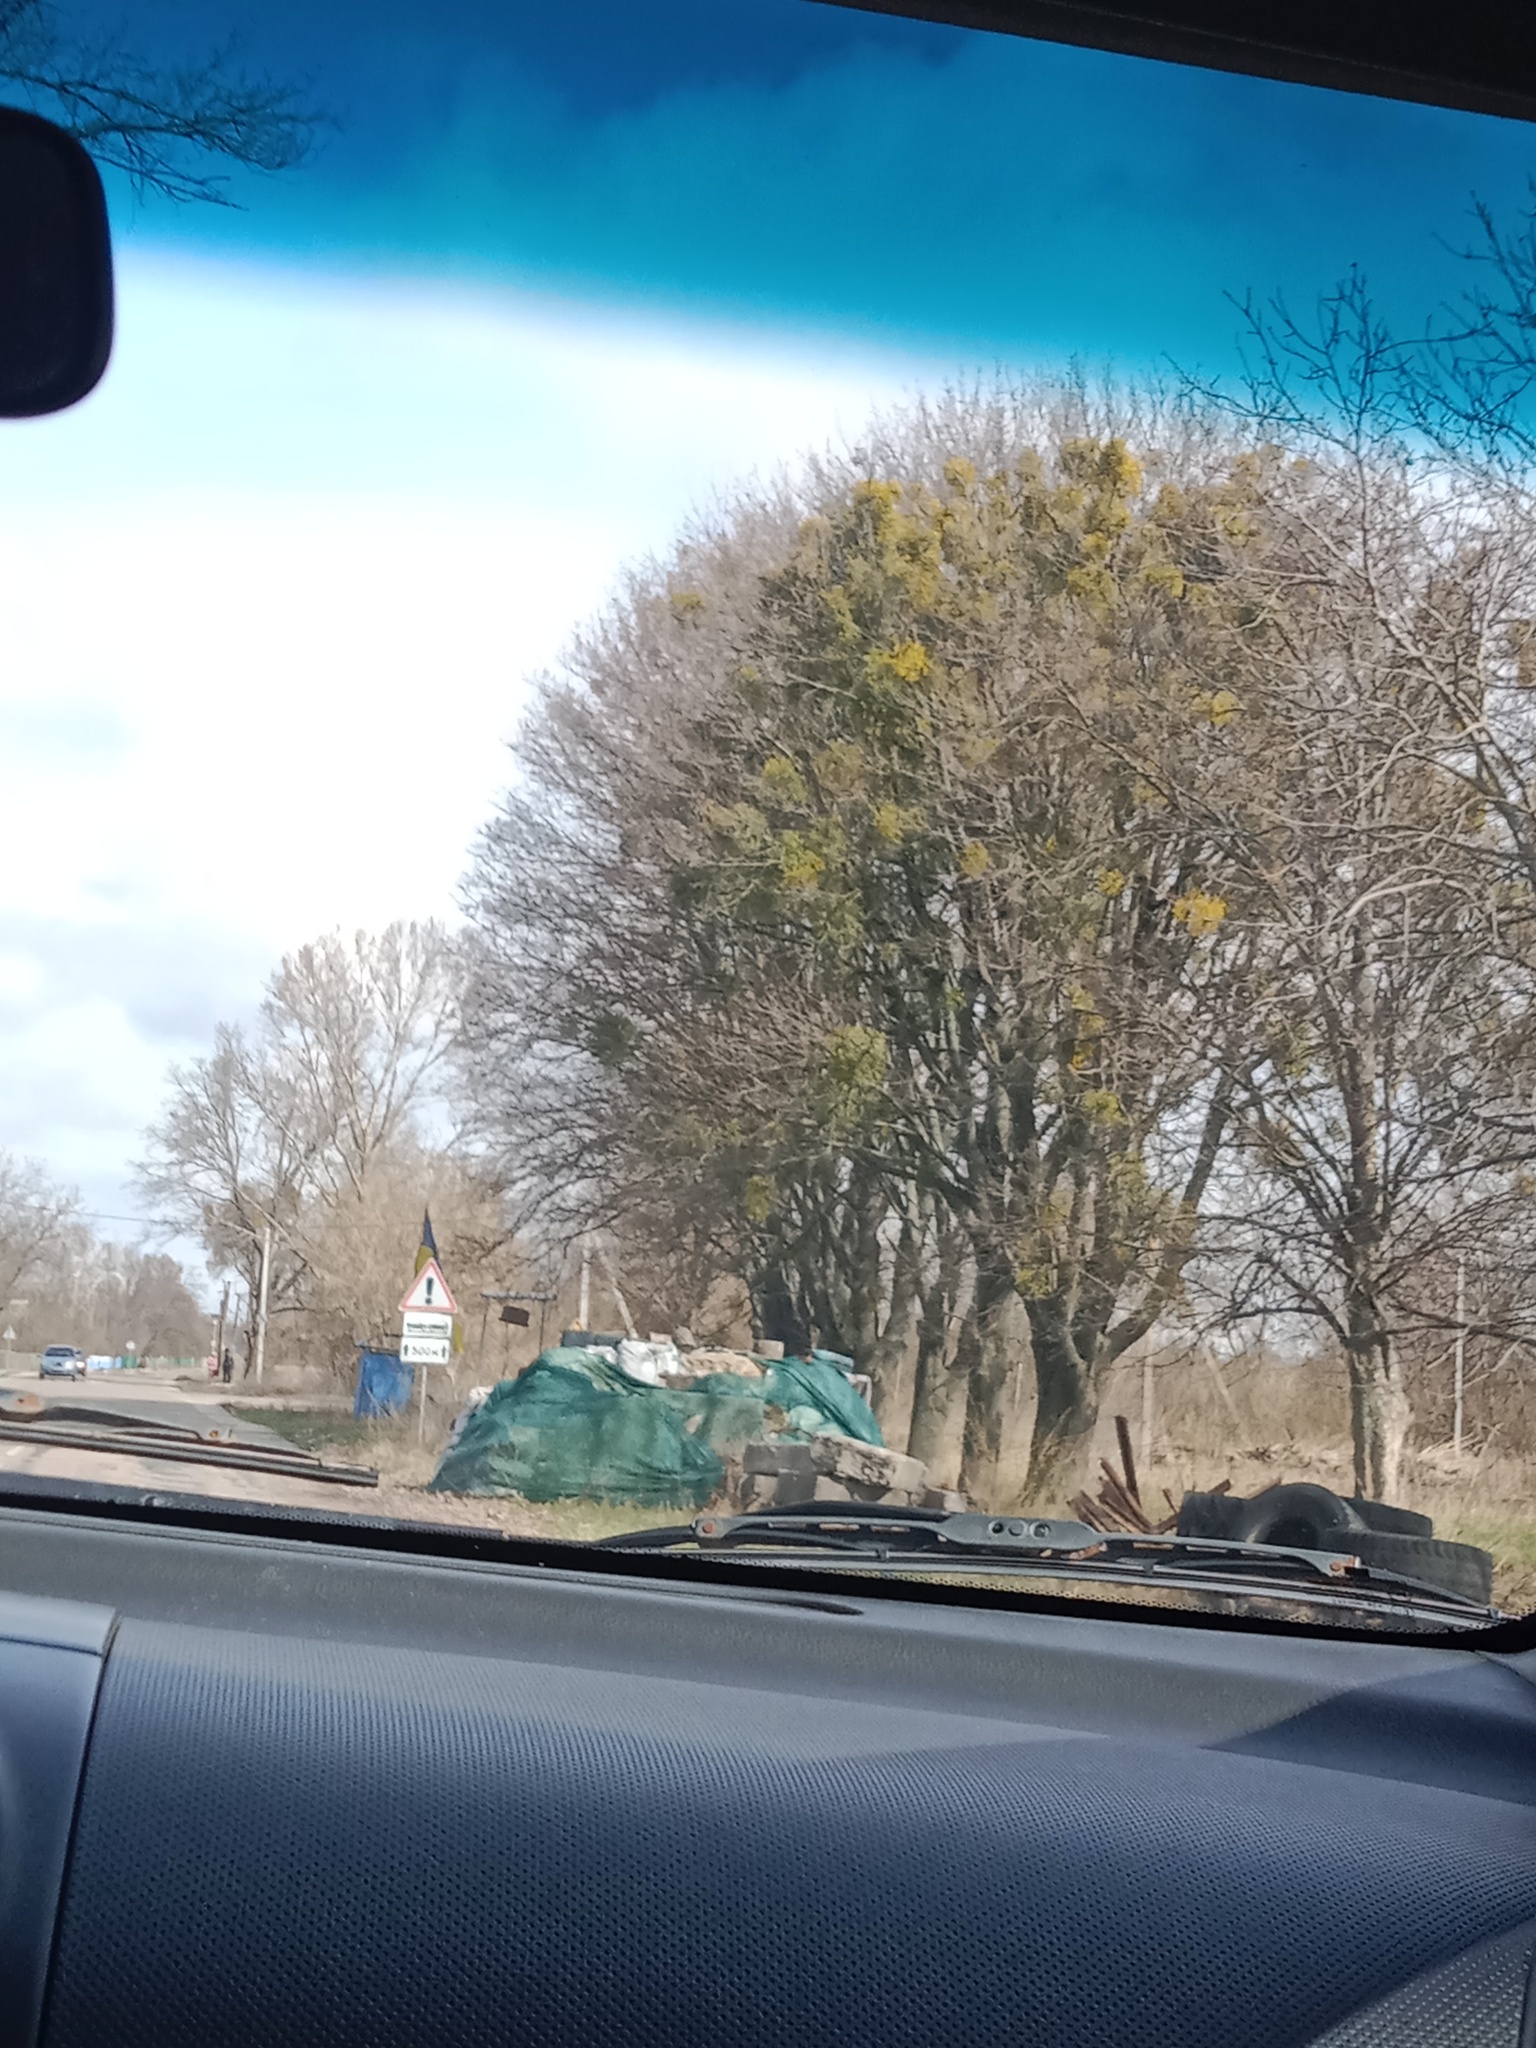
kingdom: Plantae
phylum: Tracheophyta
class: Magnoliopsida
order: Santalales
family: Viscaceae
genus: Viscum
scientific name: Viscum album
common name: Mistletoe
